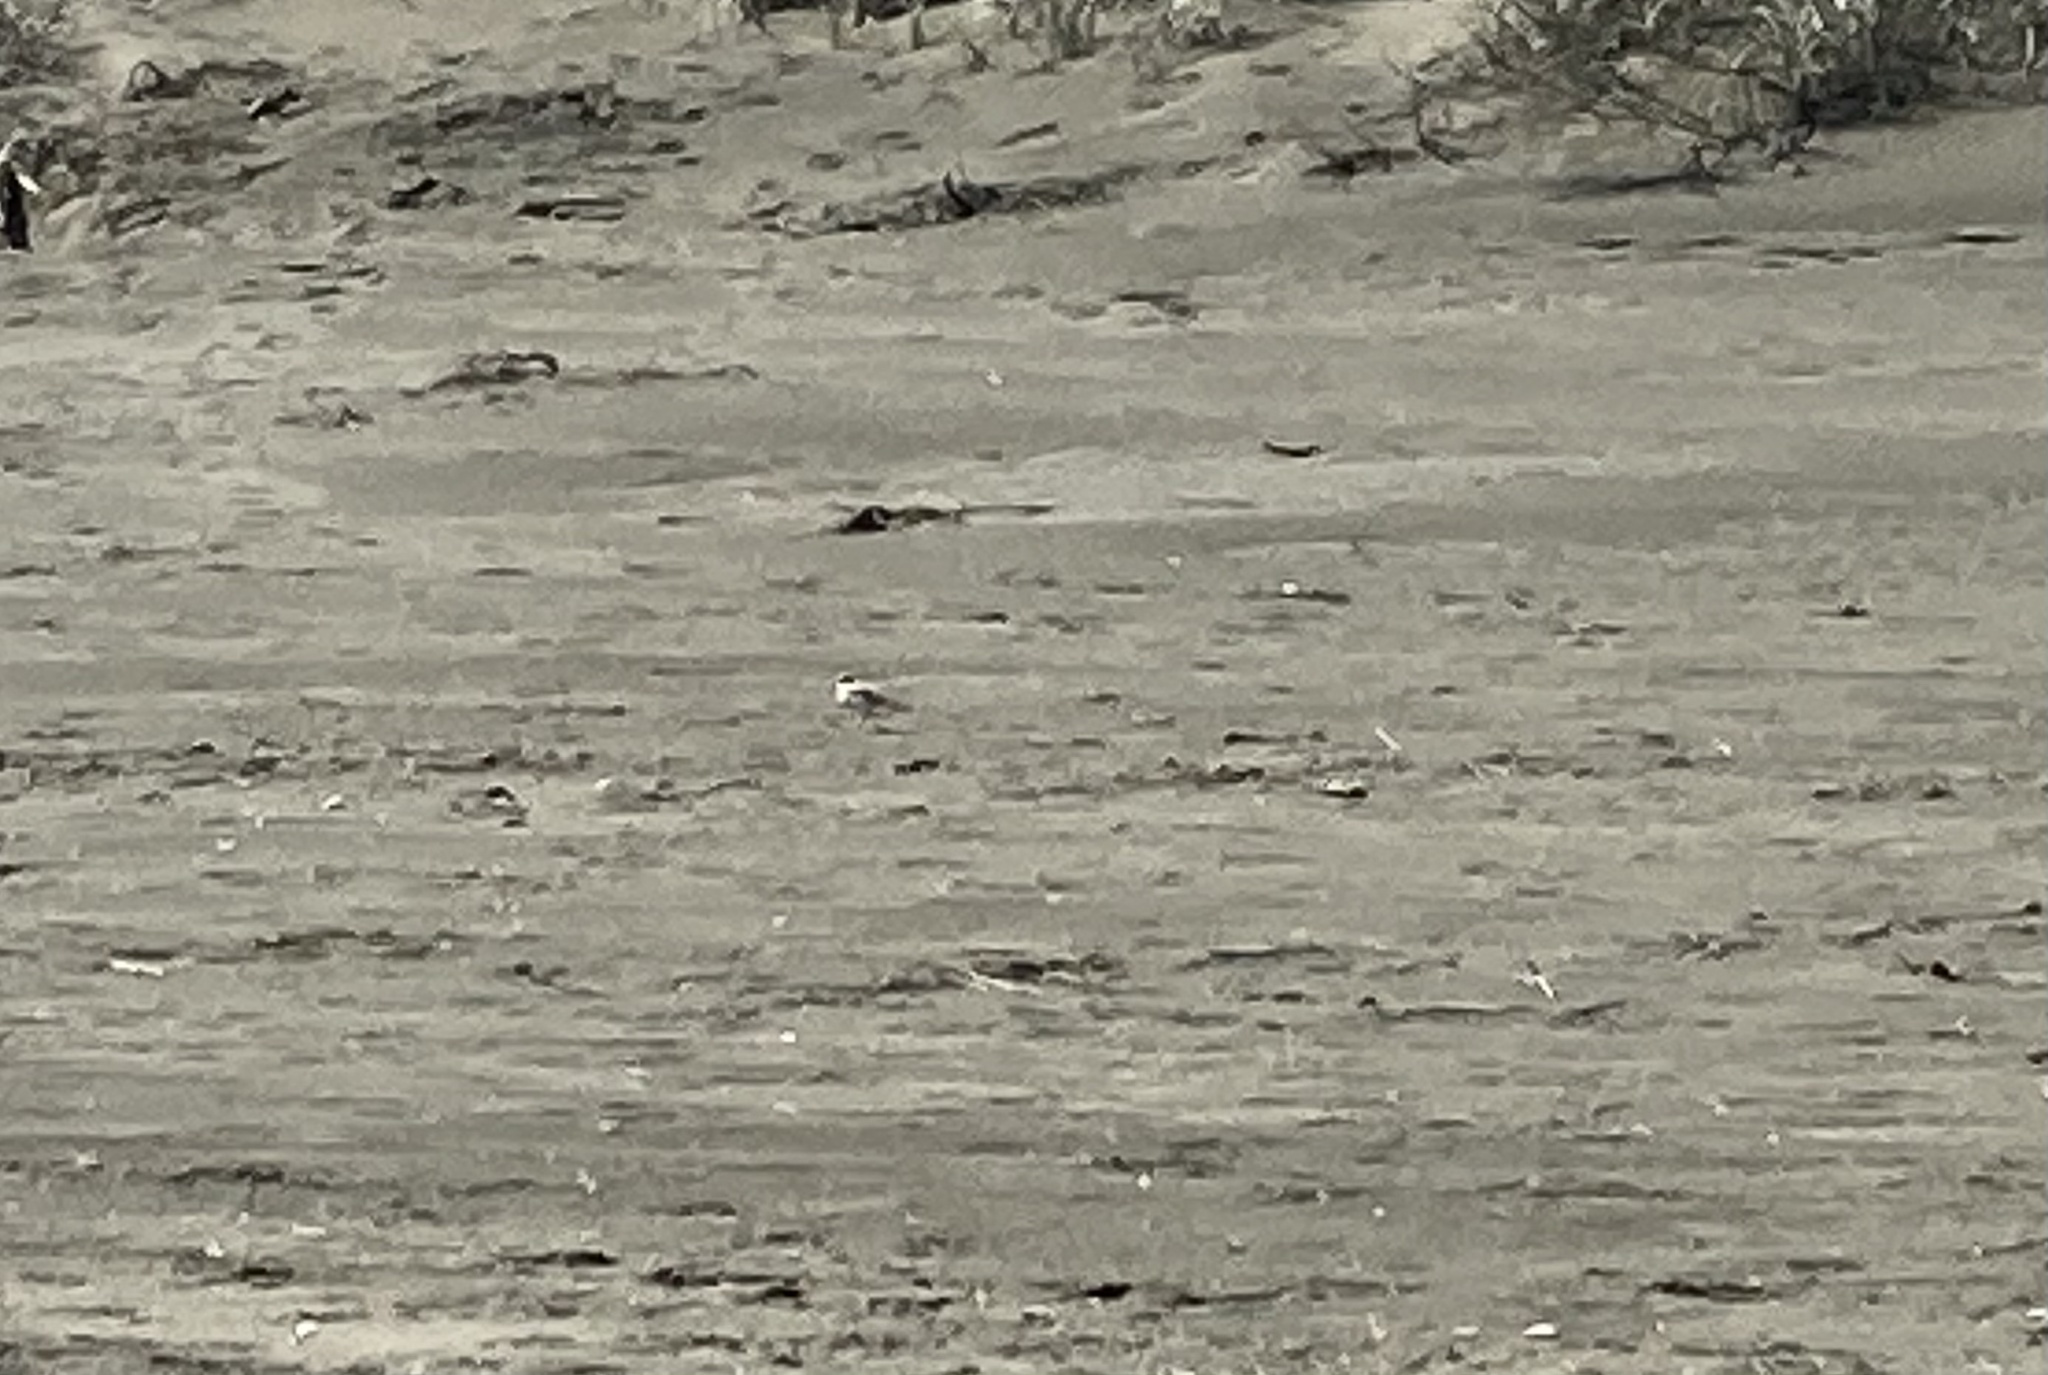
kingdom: Animalia
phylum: Chordata
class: Aves
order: Charadriiformes
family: Charadriidae
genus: Anarhynchus
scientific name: Anarhynchus
